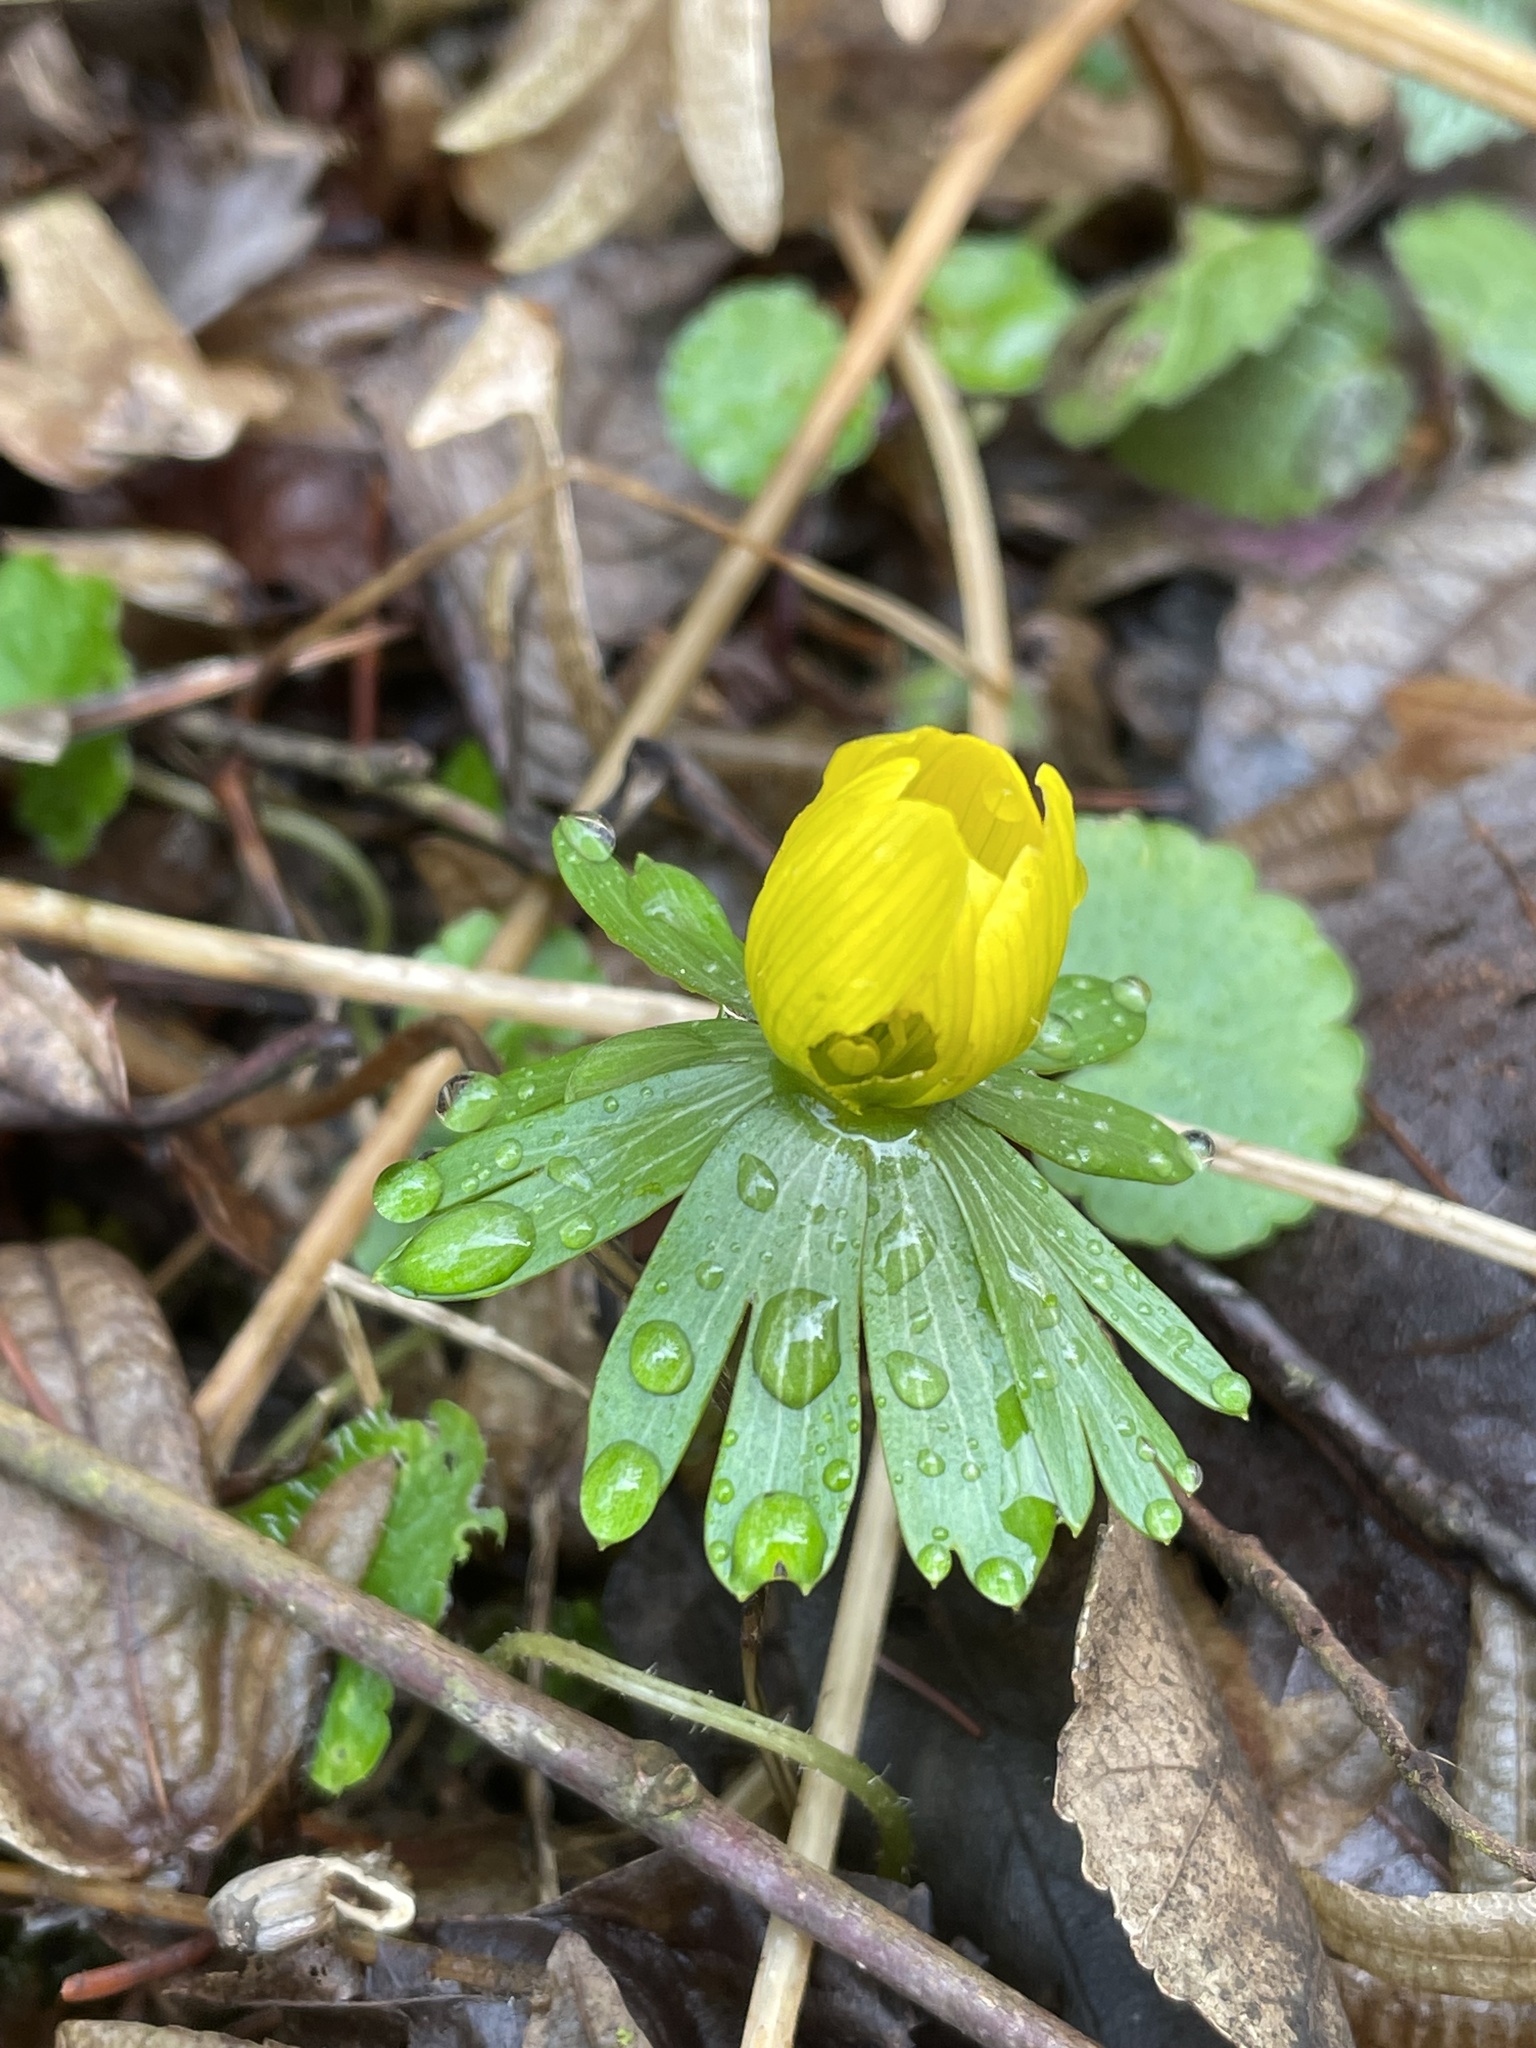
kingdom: Plantae
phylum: Tracheophyta
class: Magnoliopsida
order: Ranunculales
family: Ranunculaceae
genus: Eranthis
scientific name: Eranthis hyemalis
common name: Winter aconite
